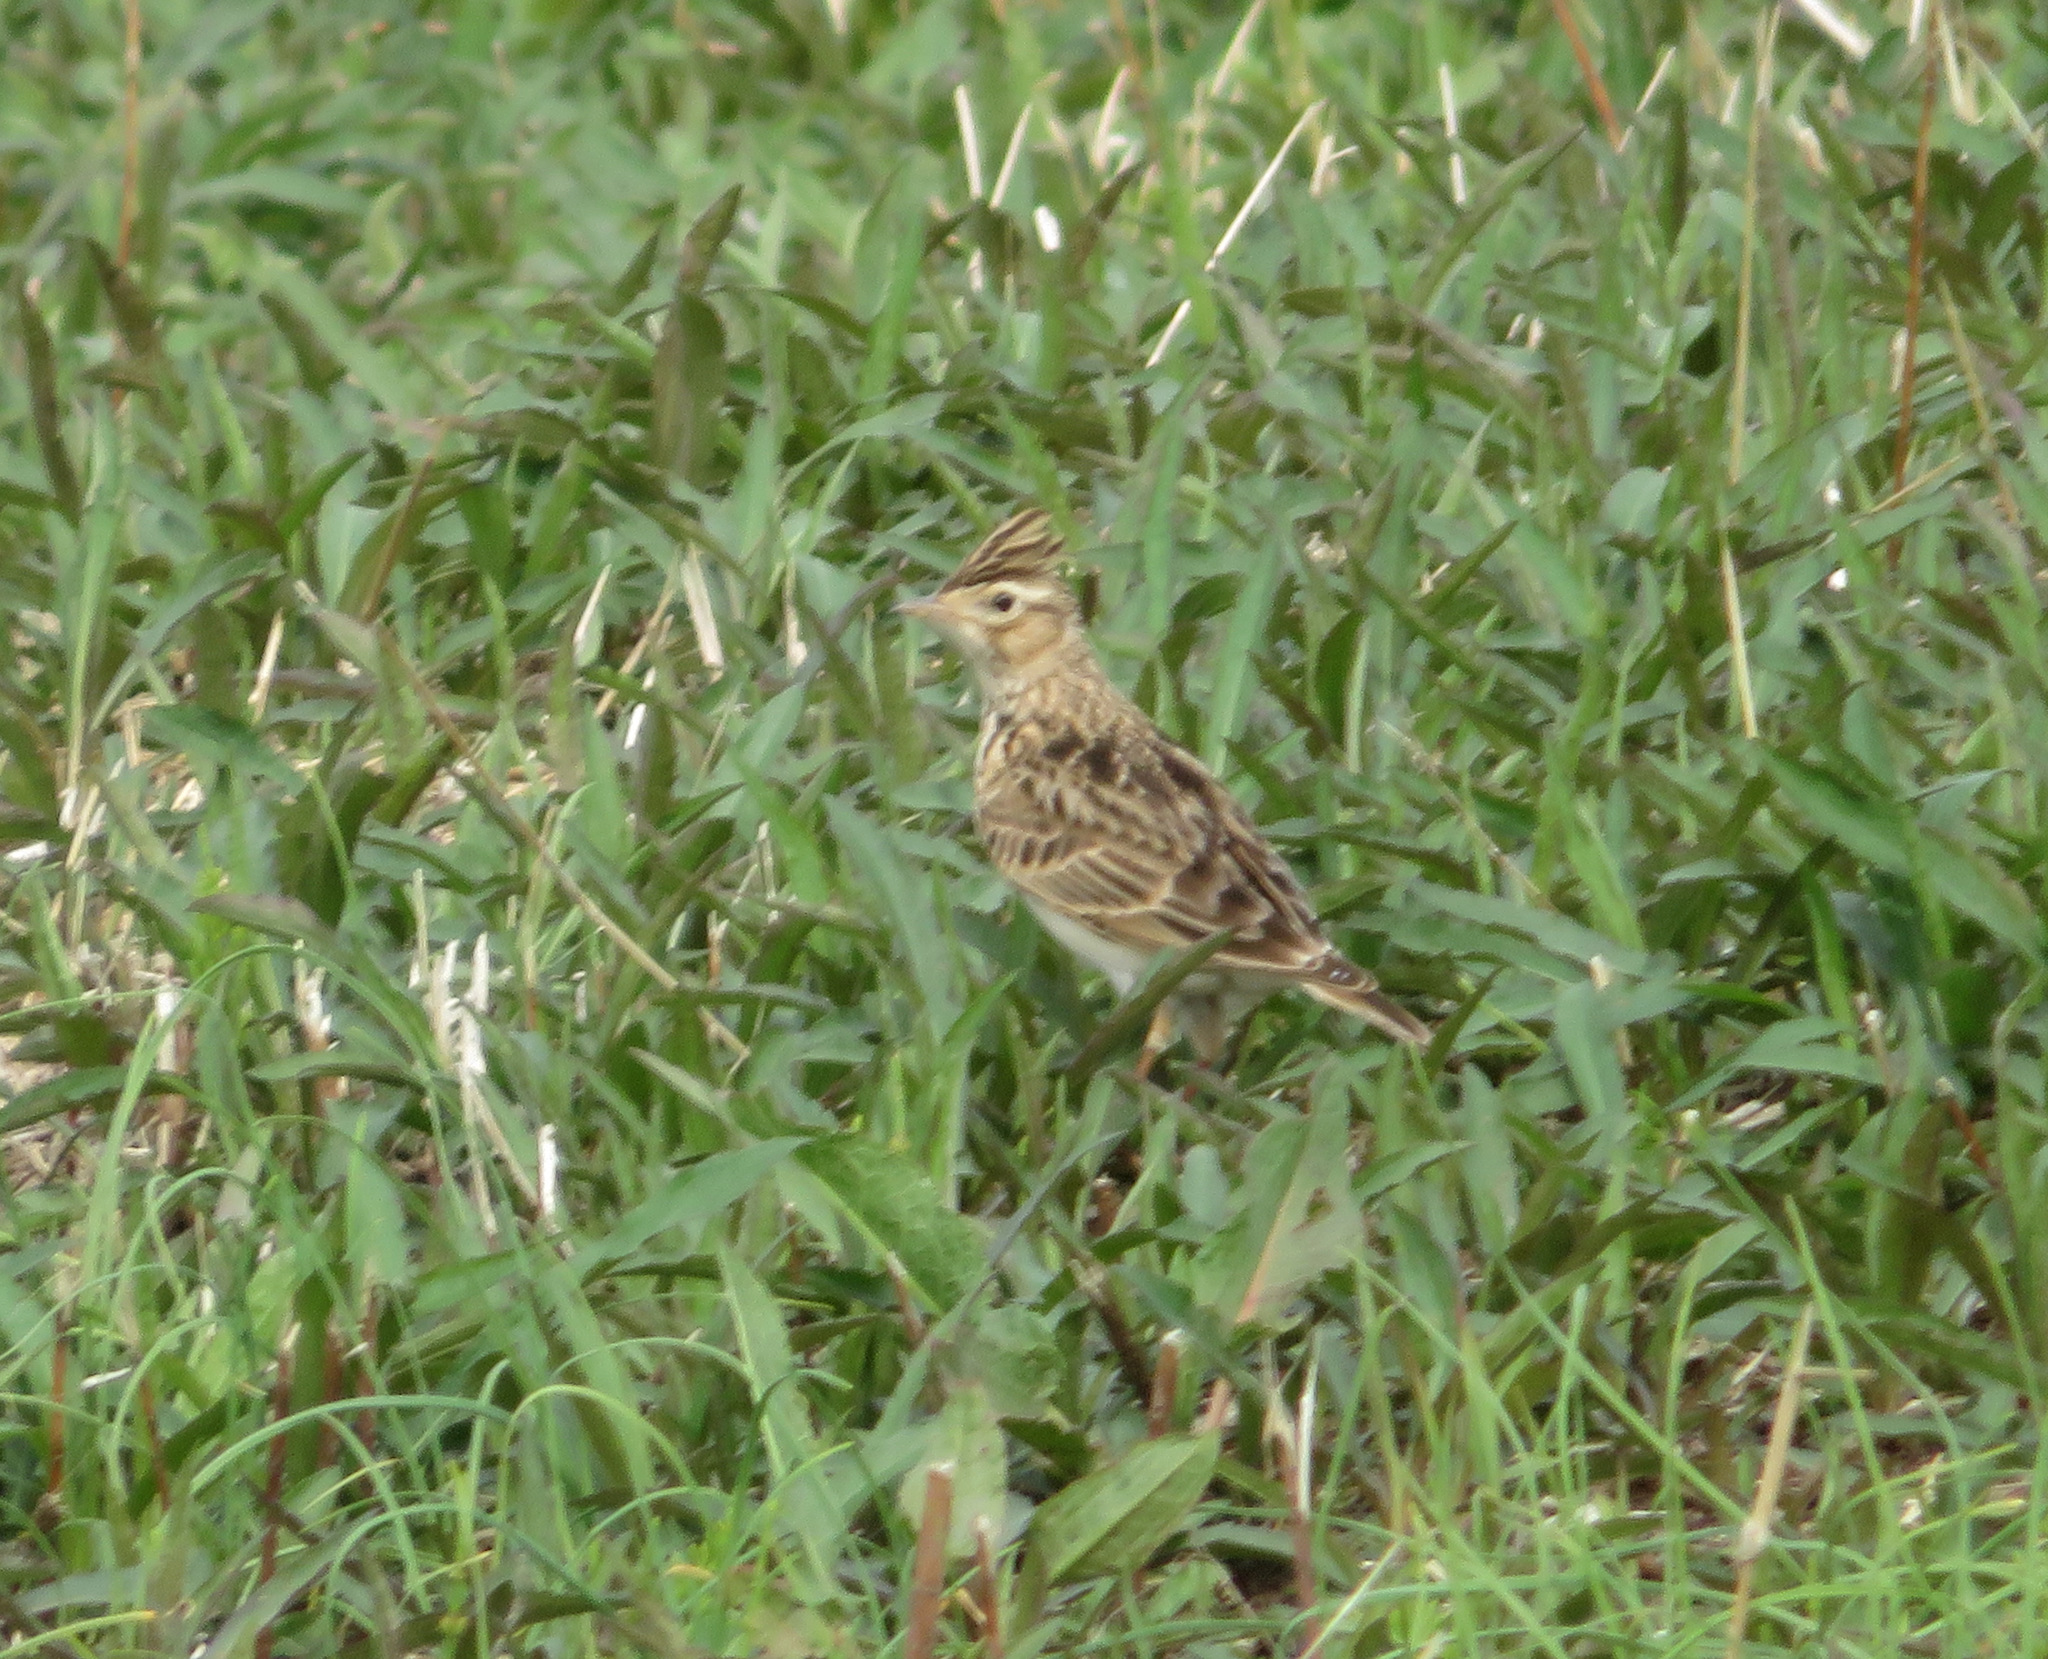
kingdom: Animalia
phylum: Chordata
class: Aves
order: Passeriformes
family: Alaudidae
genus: Alauda
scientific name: Alauda arvensis
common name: Eurasian skylark
